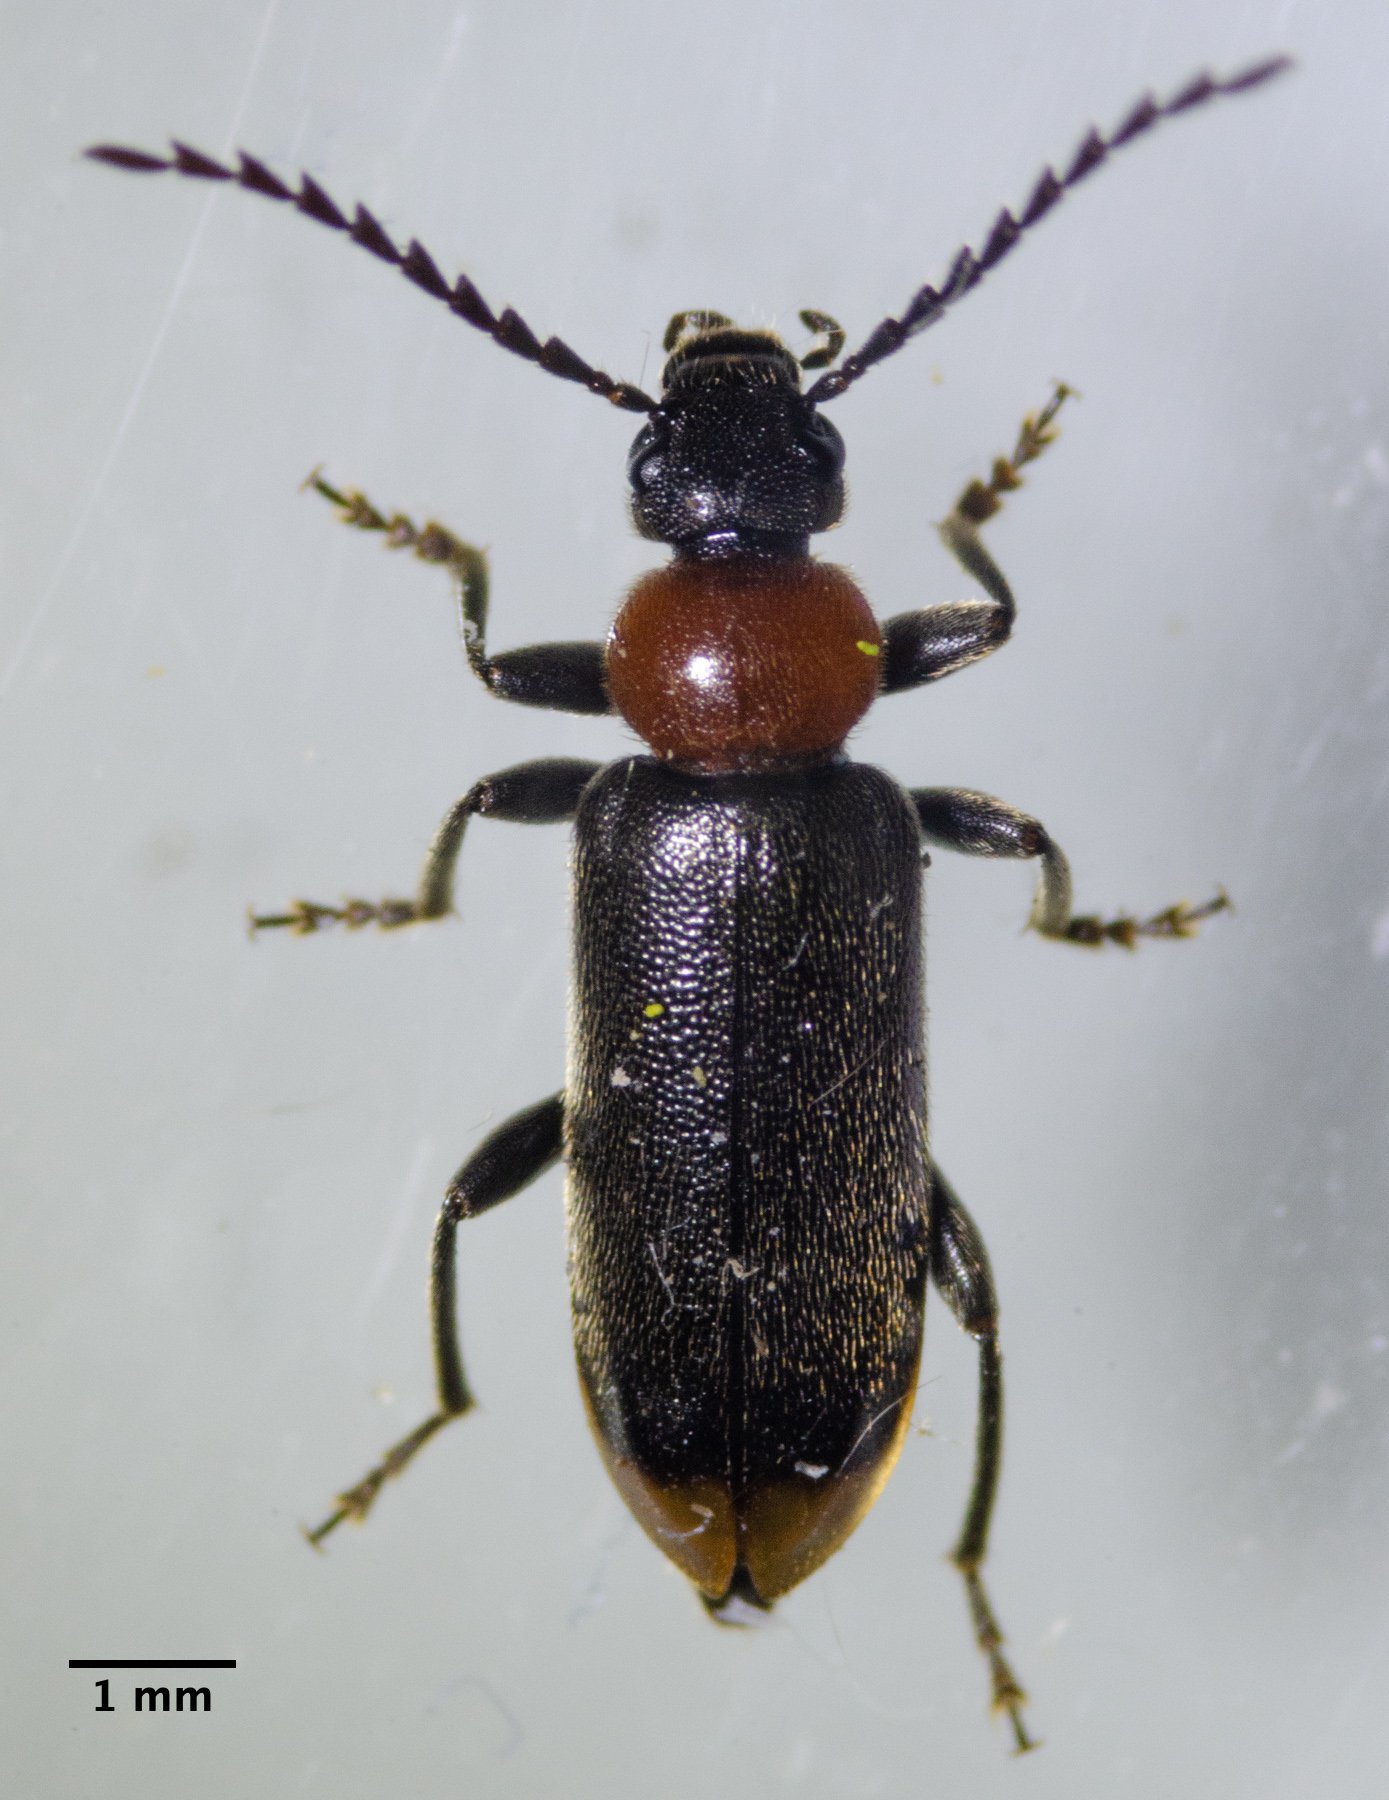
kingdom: Animalia
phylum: Arthropoda
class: Insecta
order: Coleoptera
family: Pyrochroidae
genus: Pedilus
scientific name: Pedilus punctulatus
